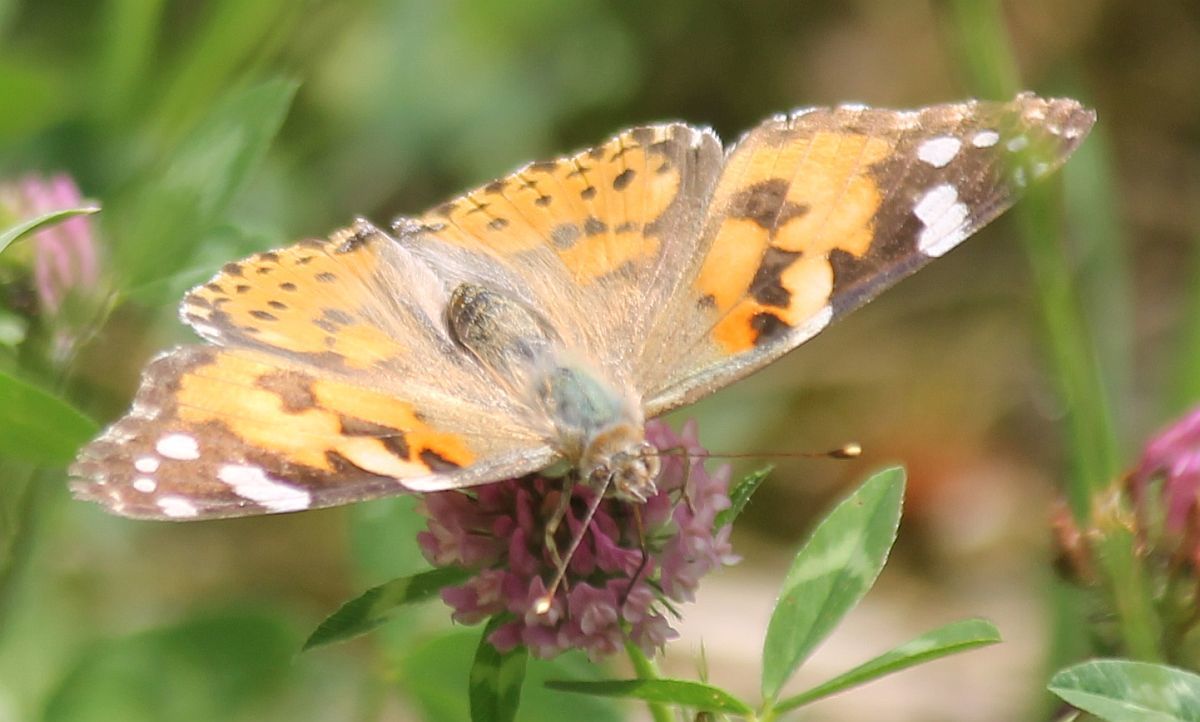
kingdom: Animalia
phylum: Arthropoda
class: Insecta
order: Lepidoptera
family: Nymphalidae
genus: Vanessa
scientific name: Vanessa cardui
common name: Painted lady
